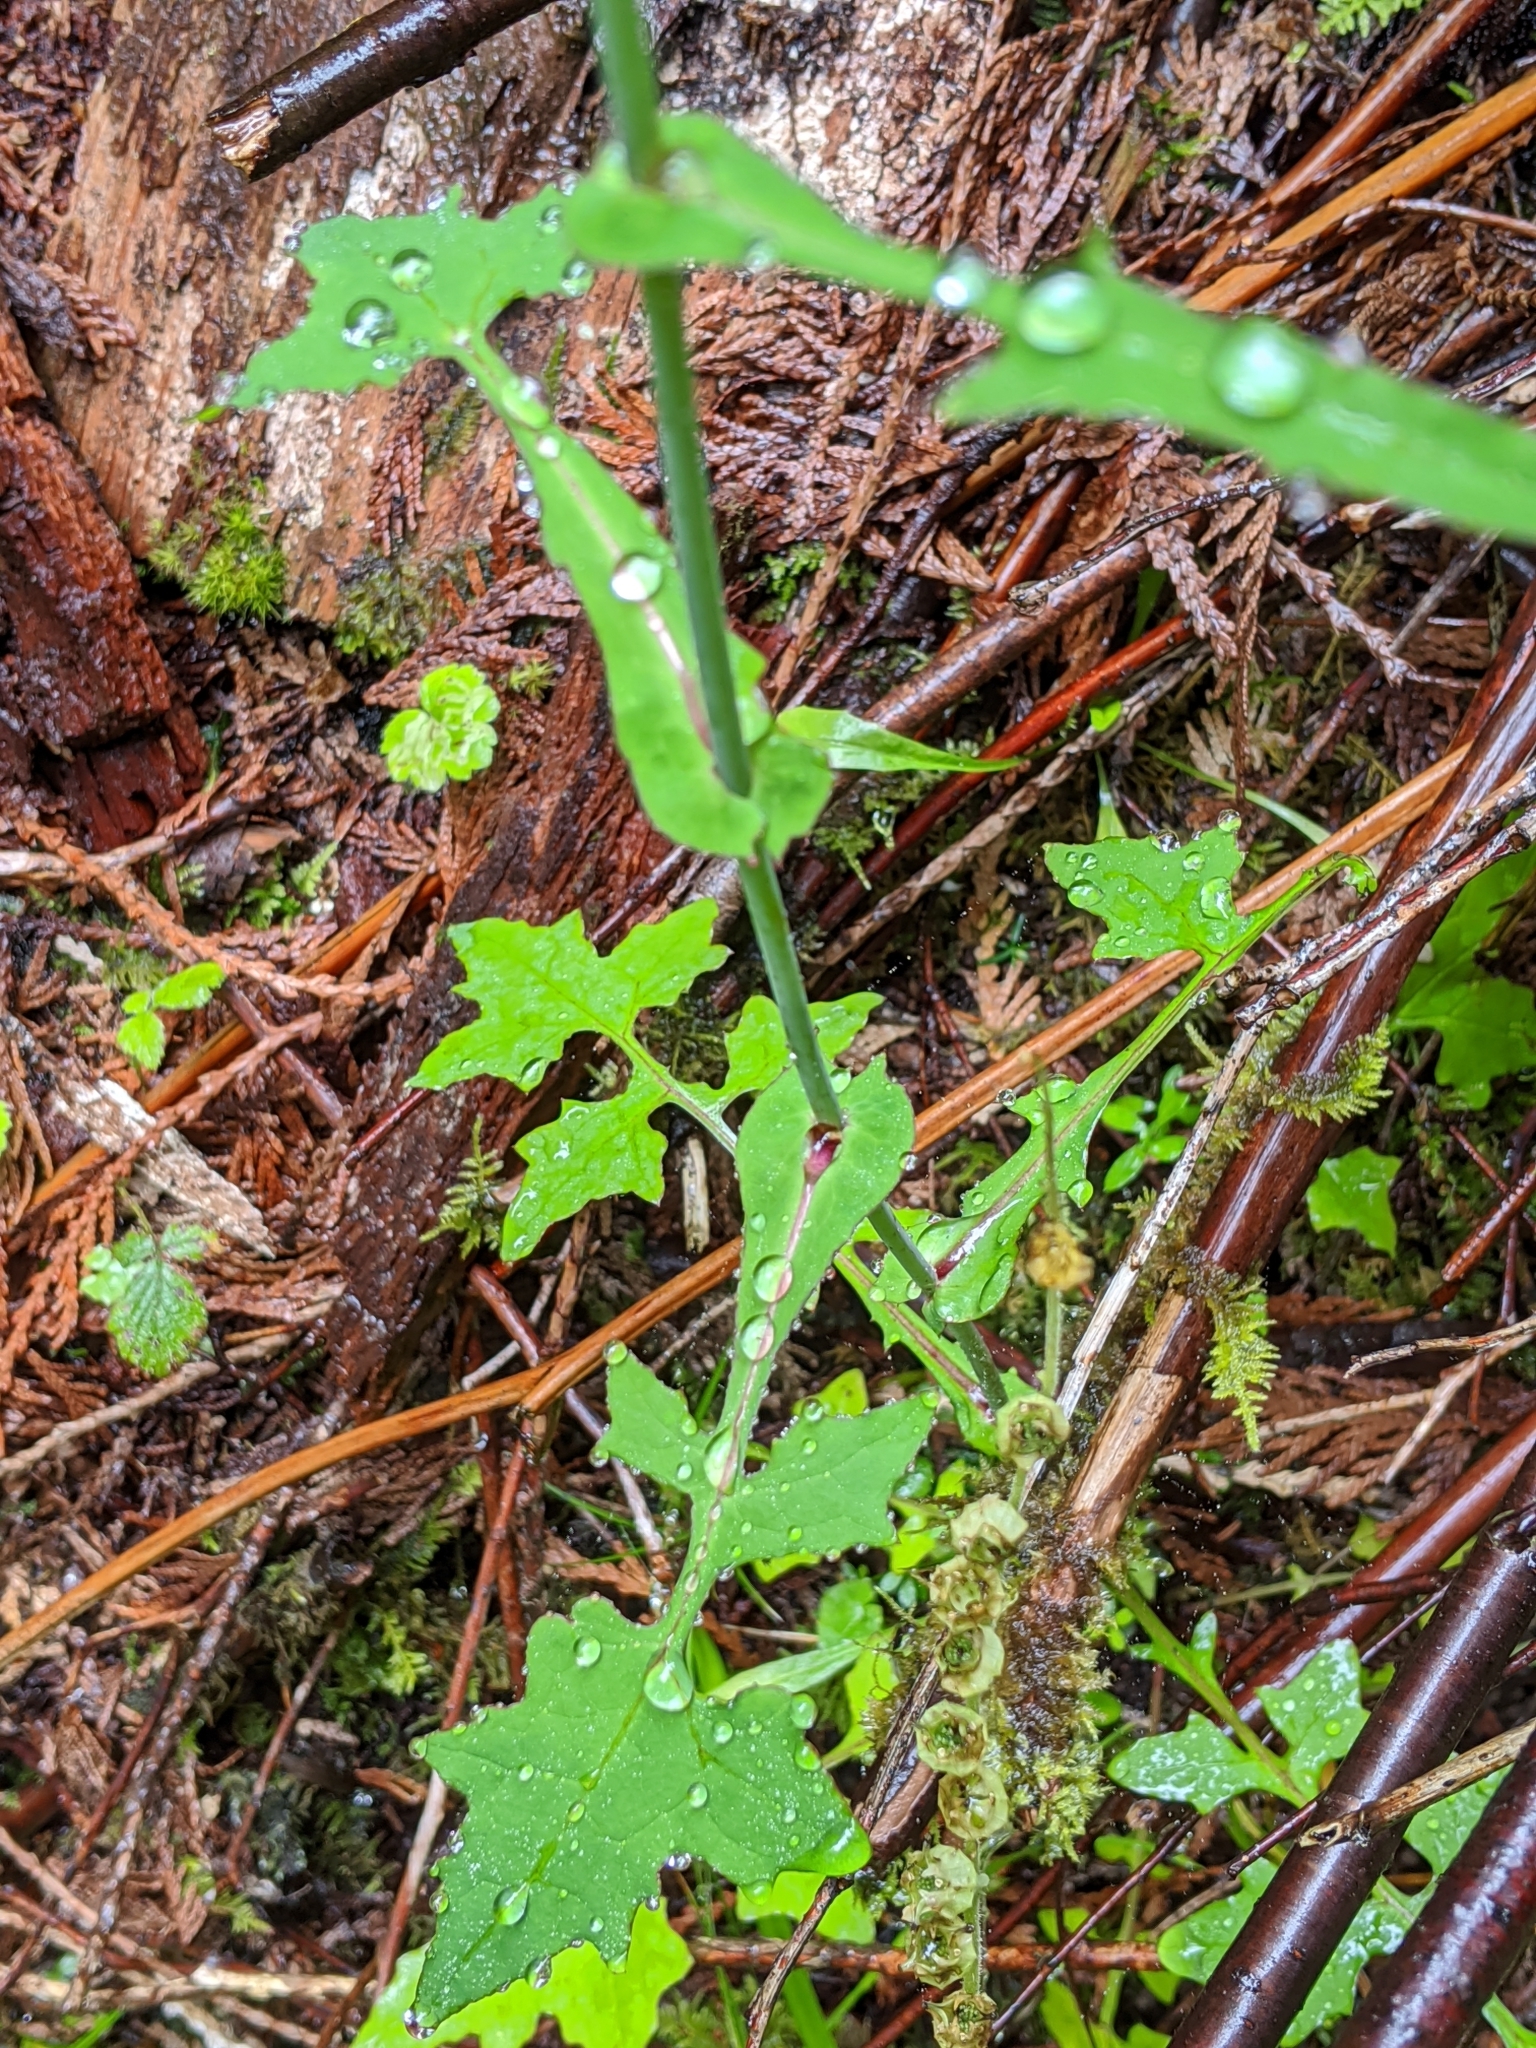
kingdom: Plantae
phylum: Tracheophyta
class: Magnoliopsida
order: Asterales
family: Asteraceae
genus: Mycelis
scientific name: Mycelis muralis
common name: Wall lettuce
